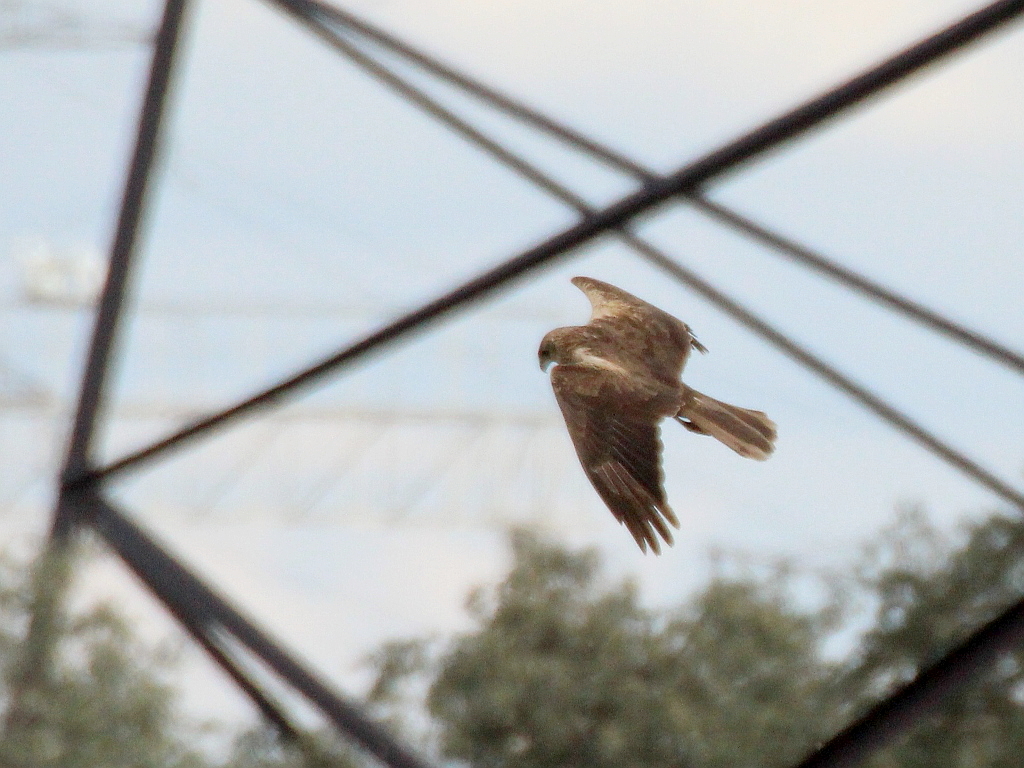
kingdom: Animalia
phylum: Chordata
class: Aves
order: Accipitriformes
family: Accipitridae
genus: Circus
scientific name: Circus aeruginosus
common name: Western marsh harrier
